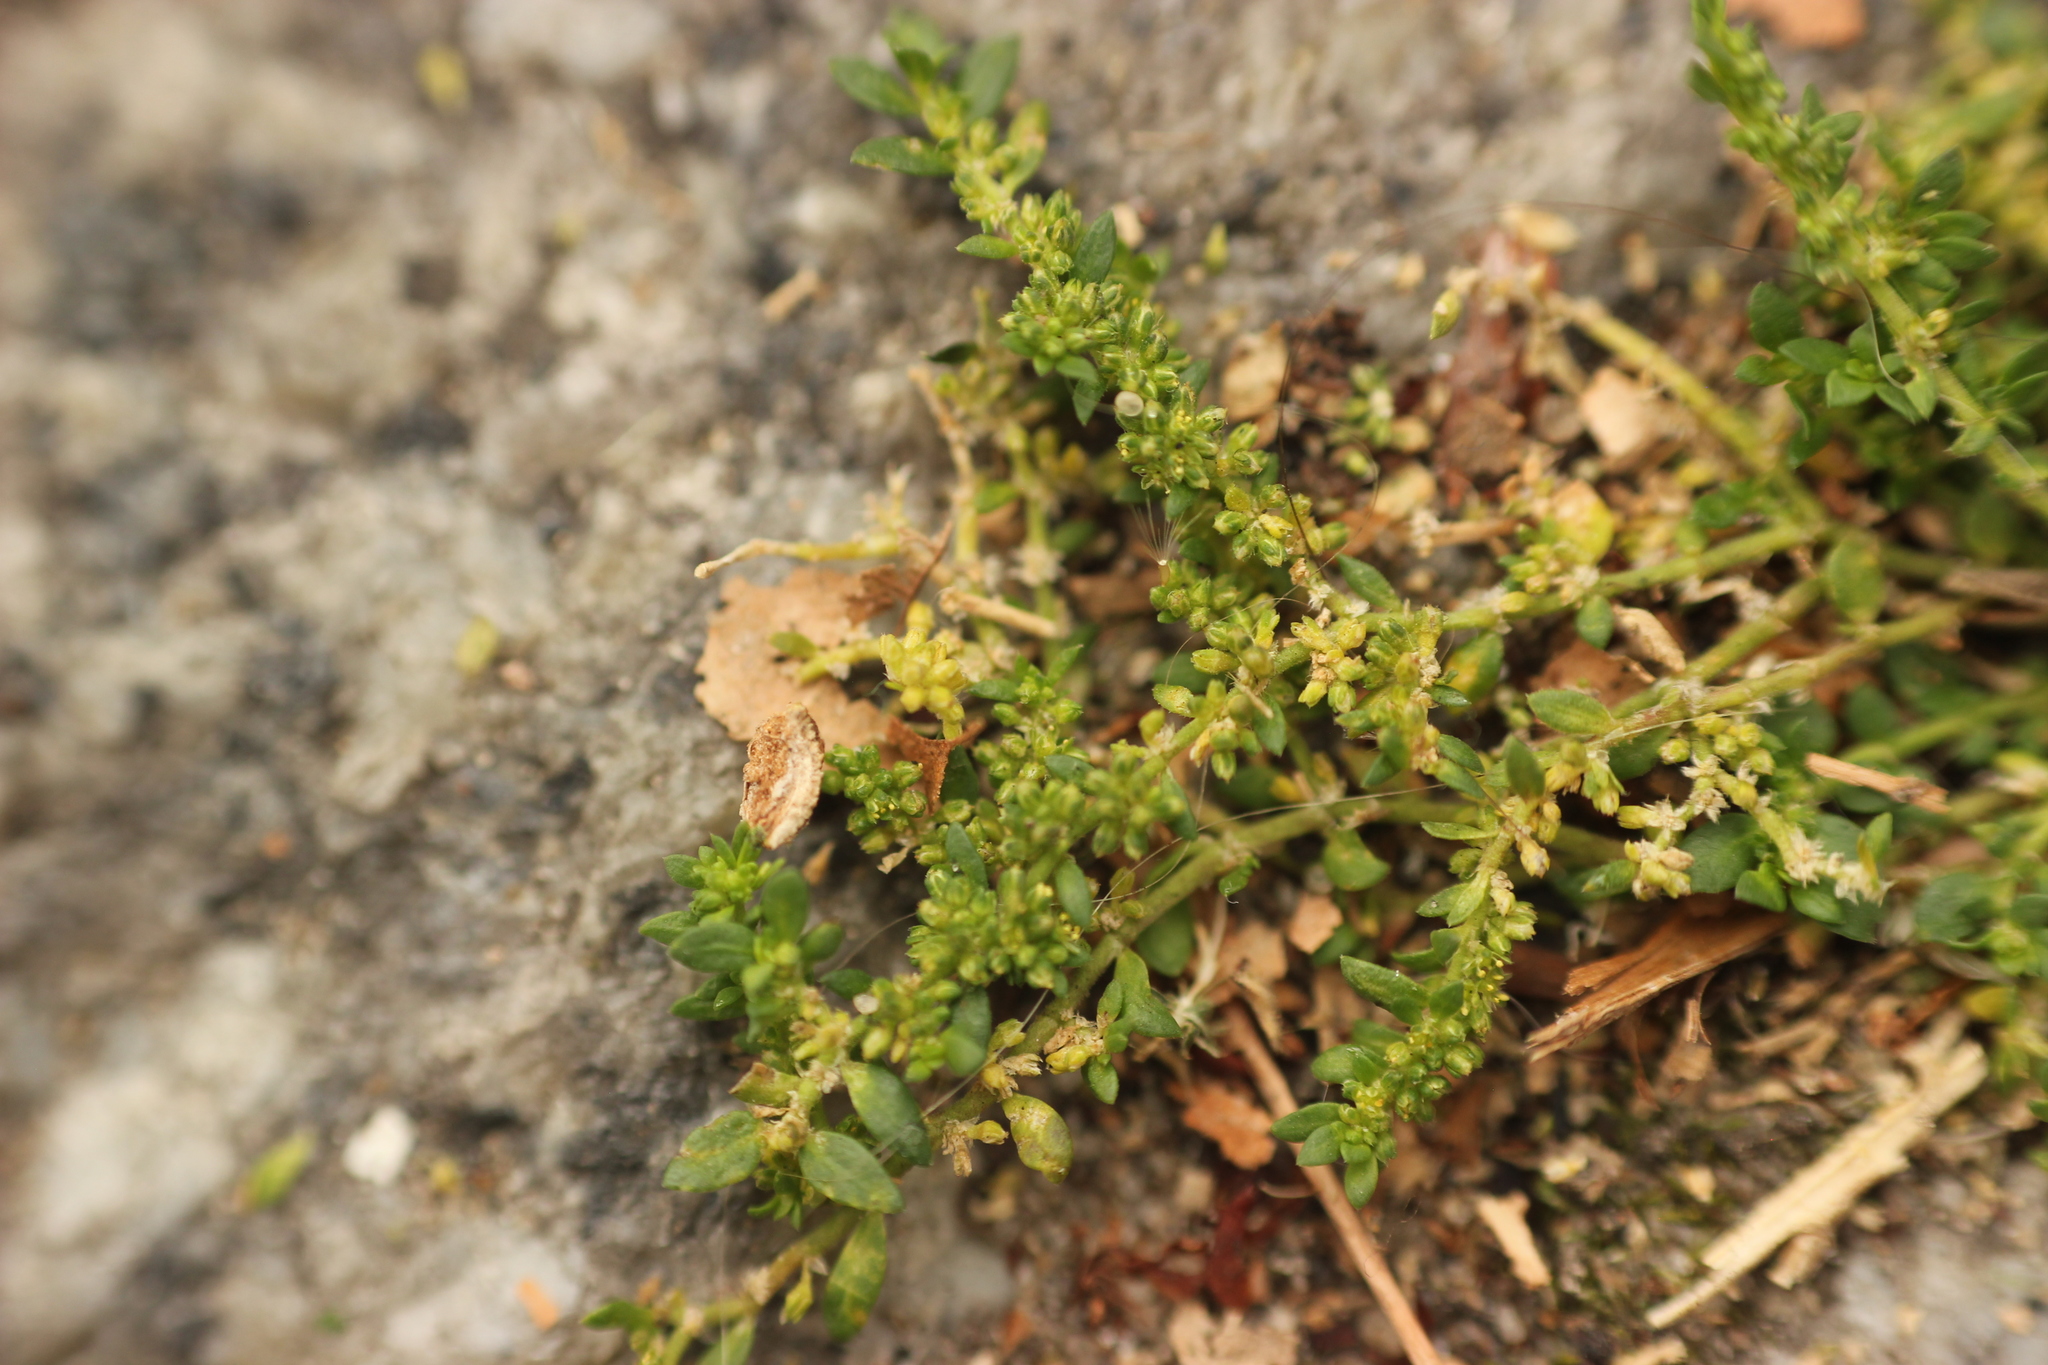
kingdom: Plantae
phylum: Tracheophyta
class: Magnoliopsida
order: Caryophyllales
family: Caryophyllaceae
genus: Herniaria
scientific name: Herniaria glabra
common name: Smooth rupturewort
